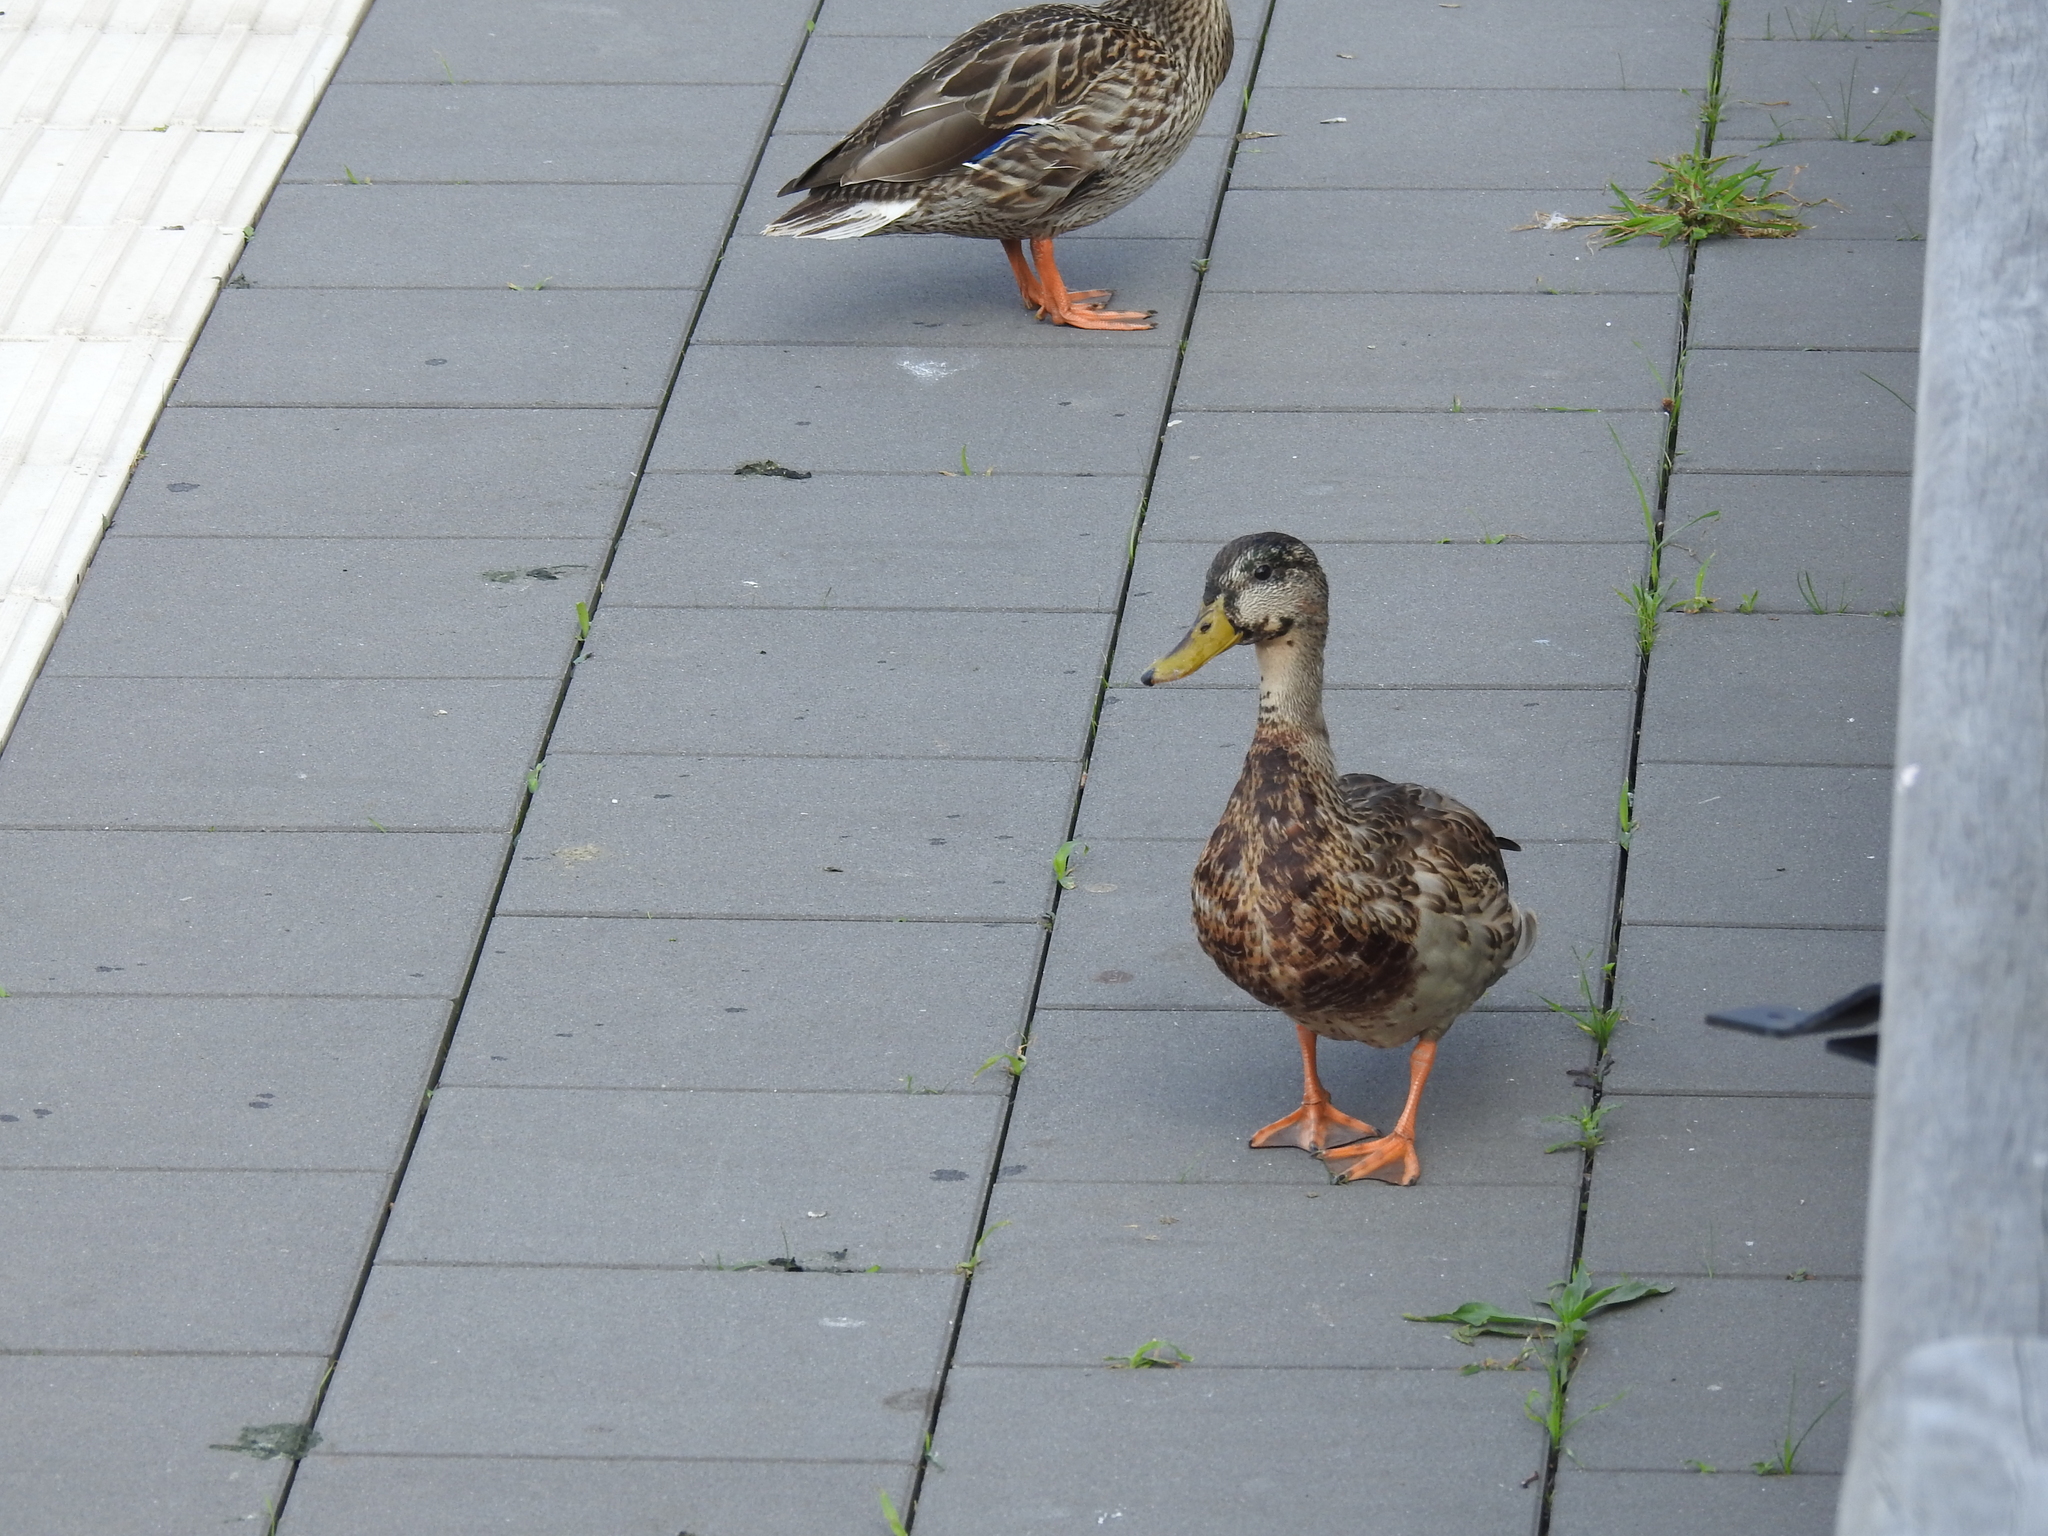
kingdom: Animalia
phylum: Chordata
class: Aves
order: Anseriformes
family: Anatidae
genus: Anas
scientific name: Anas platyrhynchos
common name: Mallard
